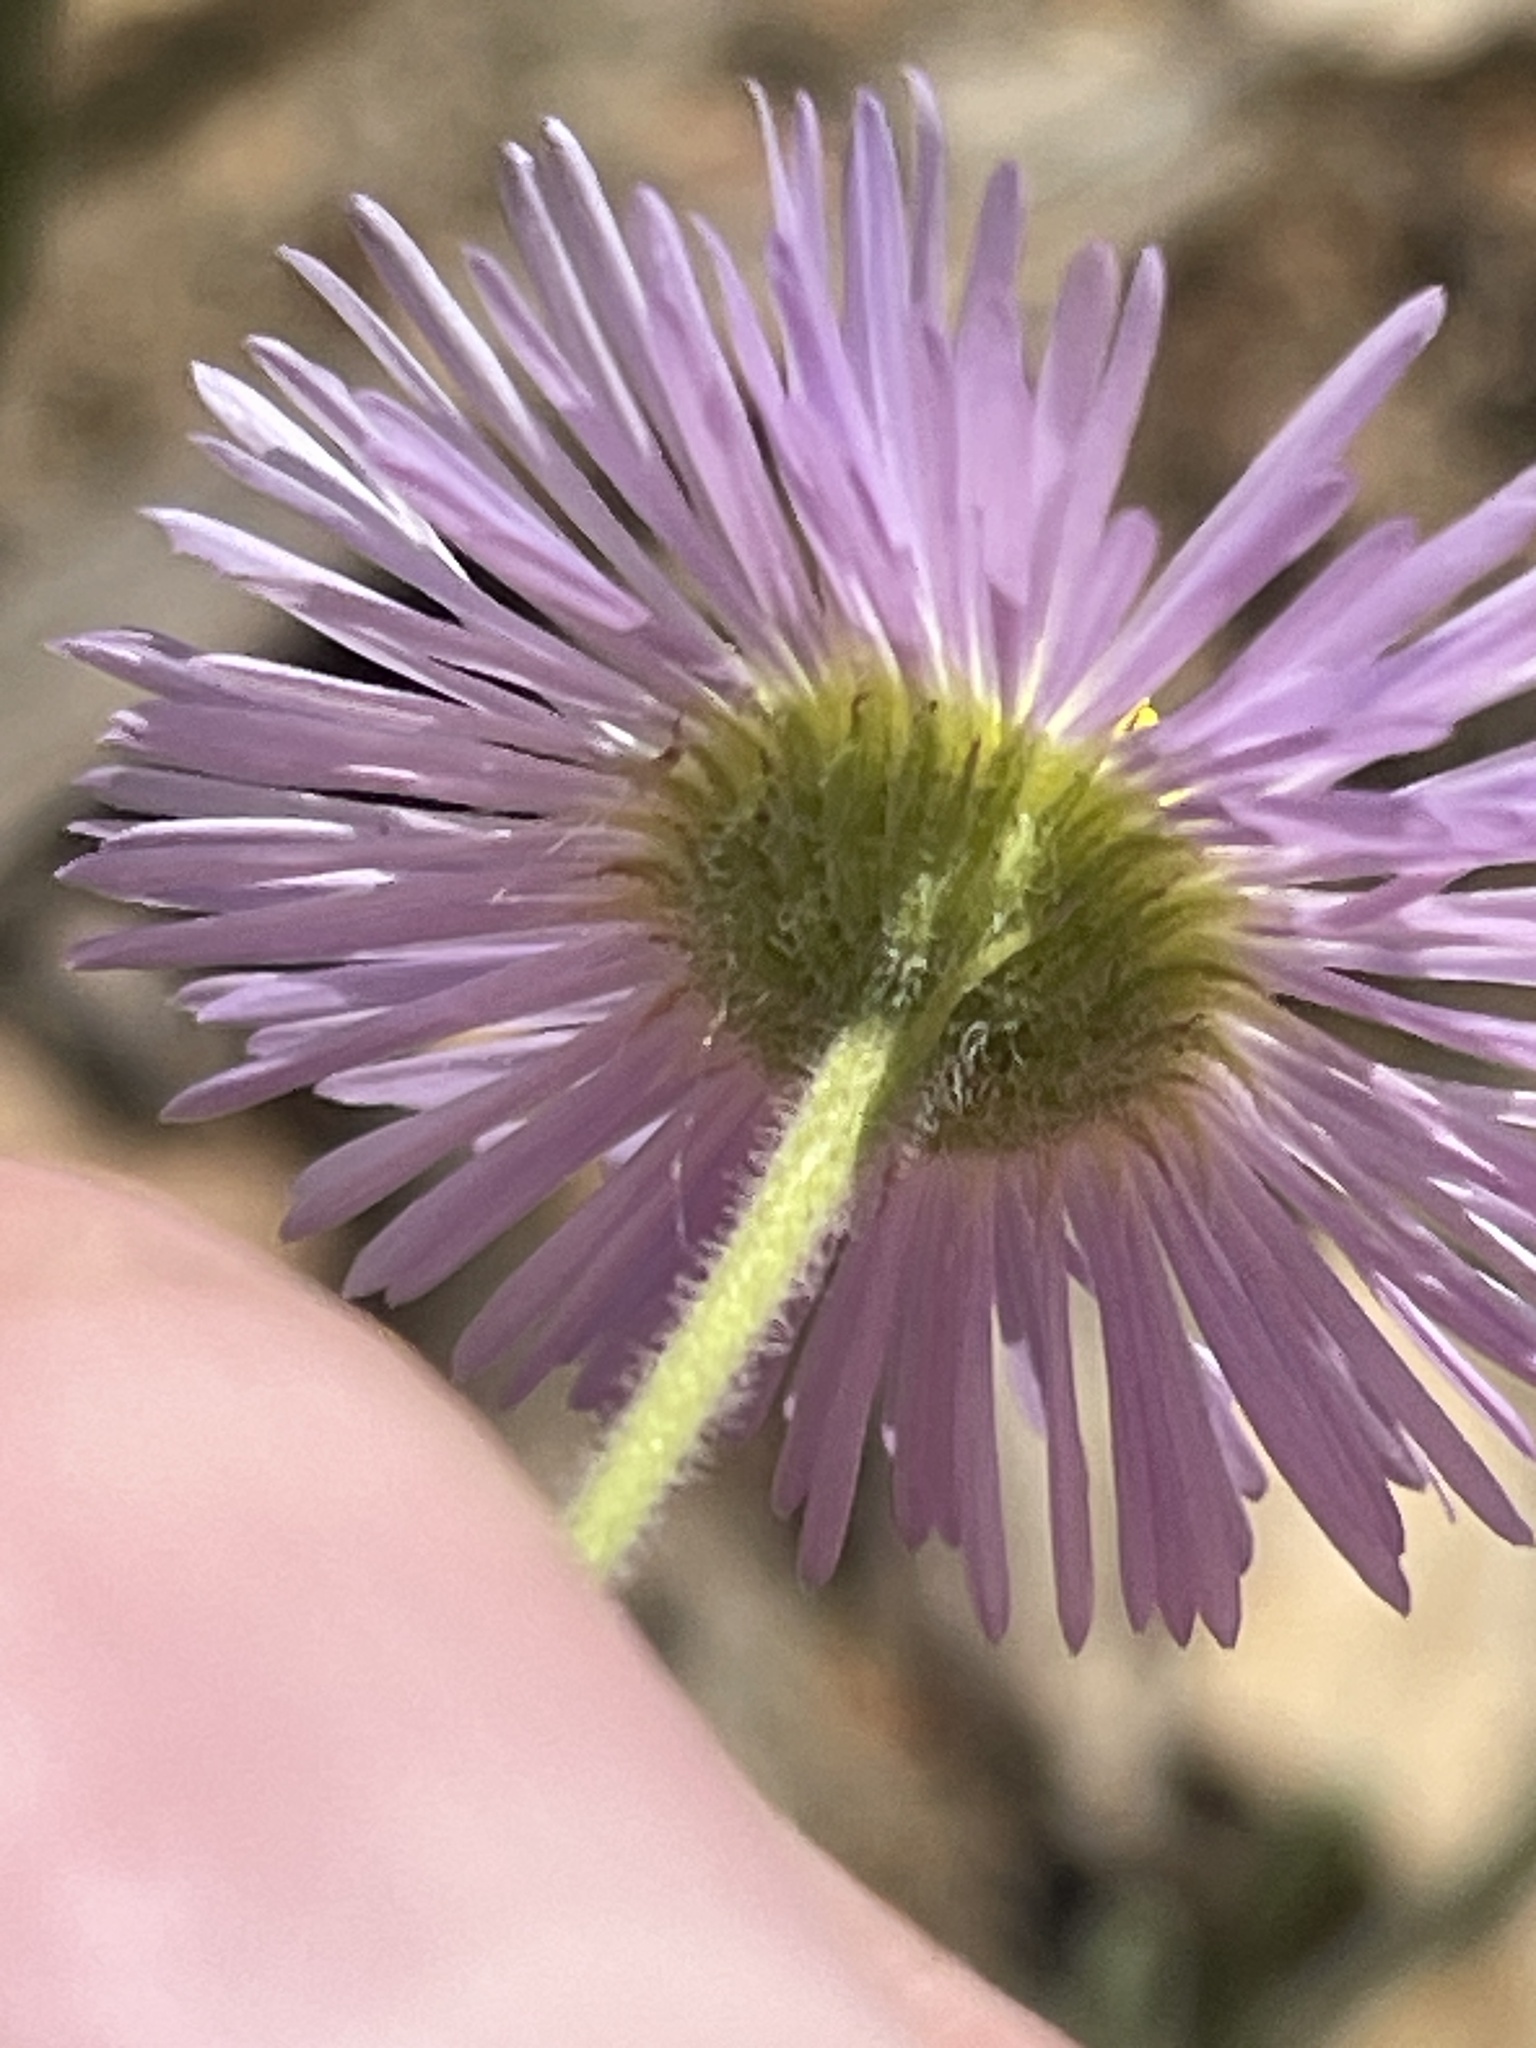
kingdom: Plantae
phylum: Tracheophyta
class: Magnoliopsida
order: Asterales
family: Asteraceae
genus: Erigeron
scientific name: Erigeron divergens
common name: Diffuse fleabane
